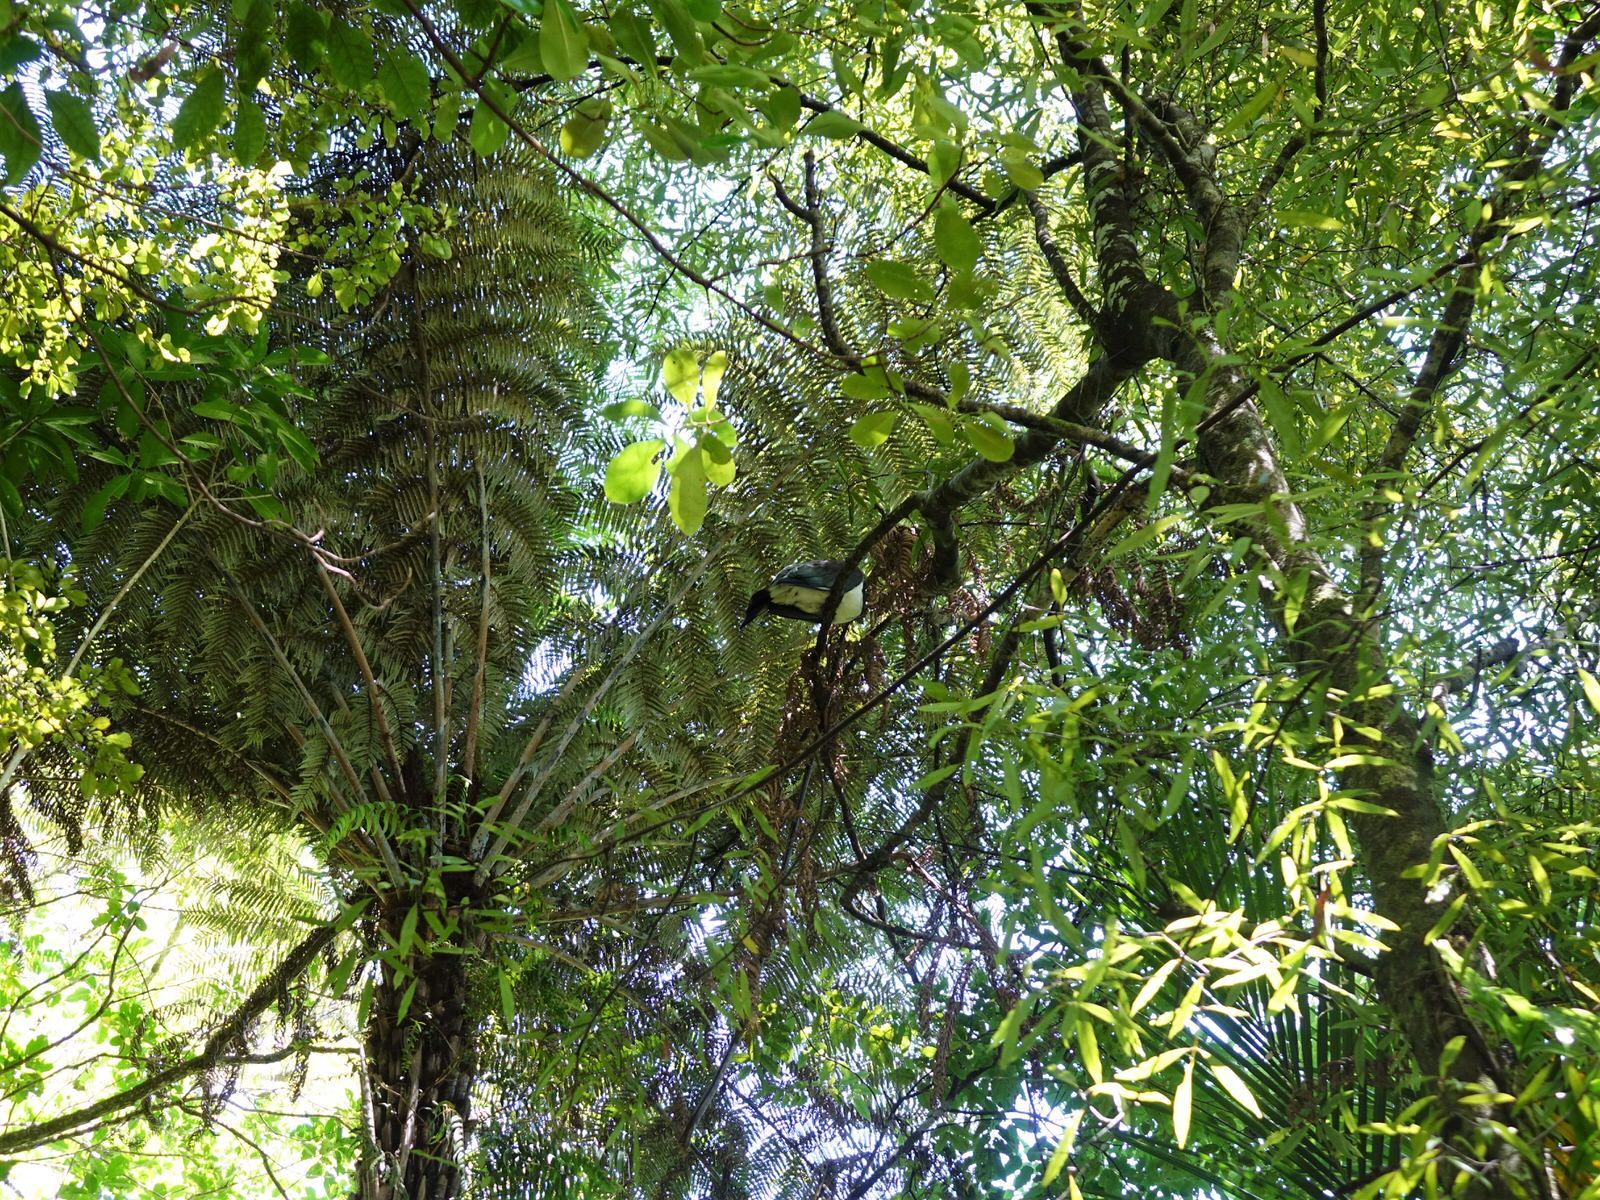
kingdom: Animalia
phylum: Chordata
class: Aves
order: Columbiformes
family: Columbidae
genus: Hemiphaga
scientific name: Hemiphaga novaeseelandiae
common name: New zealand pigeon
